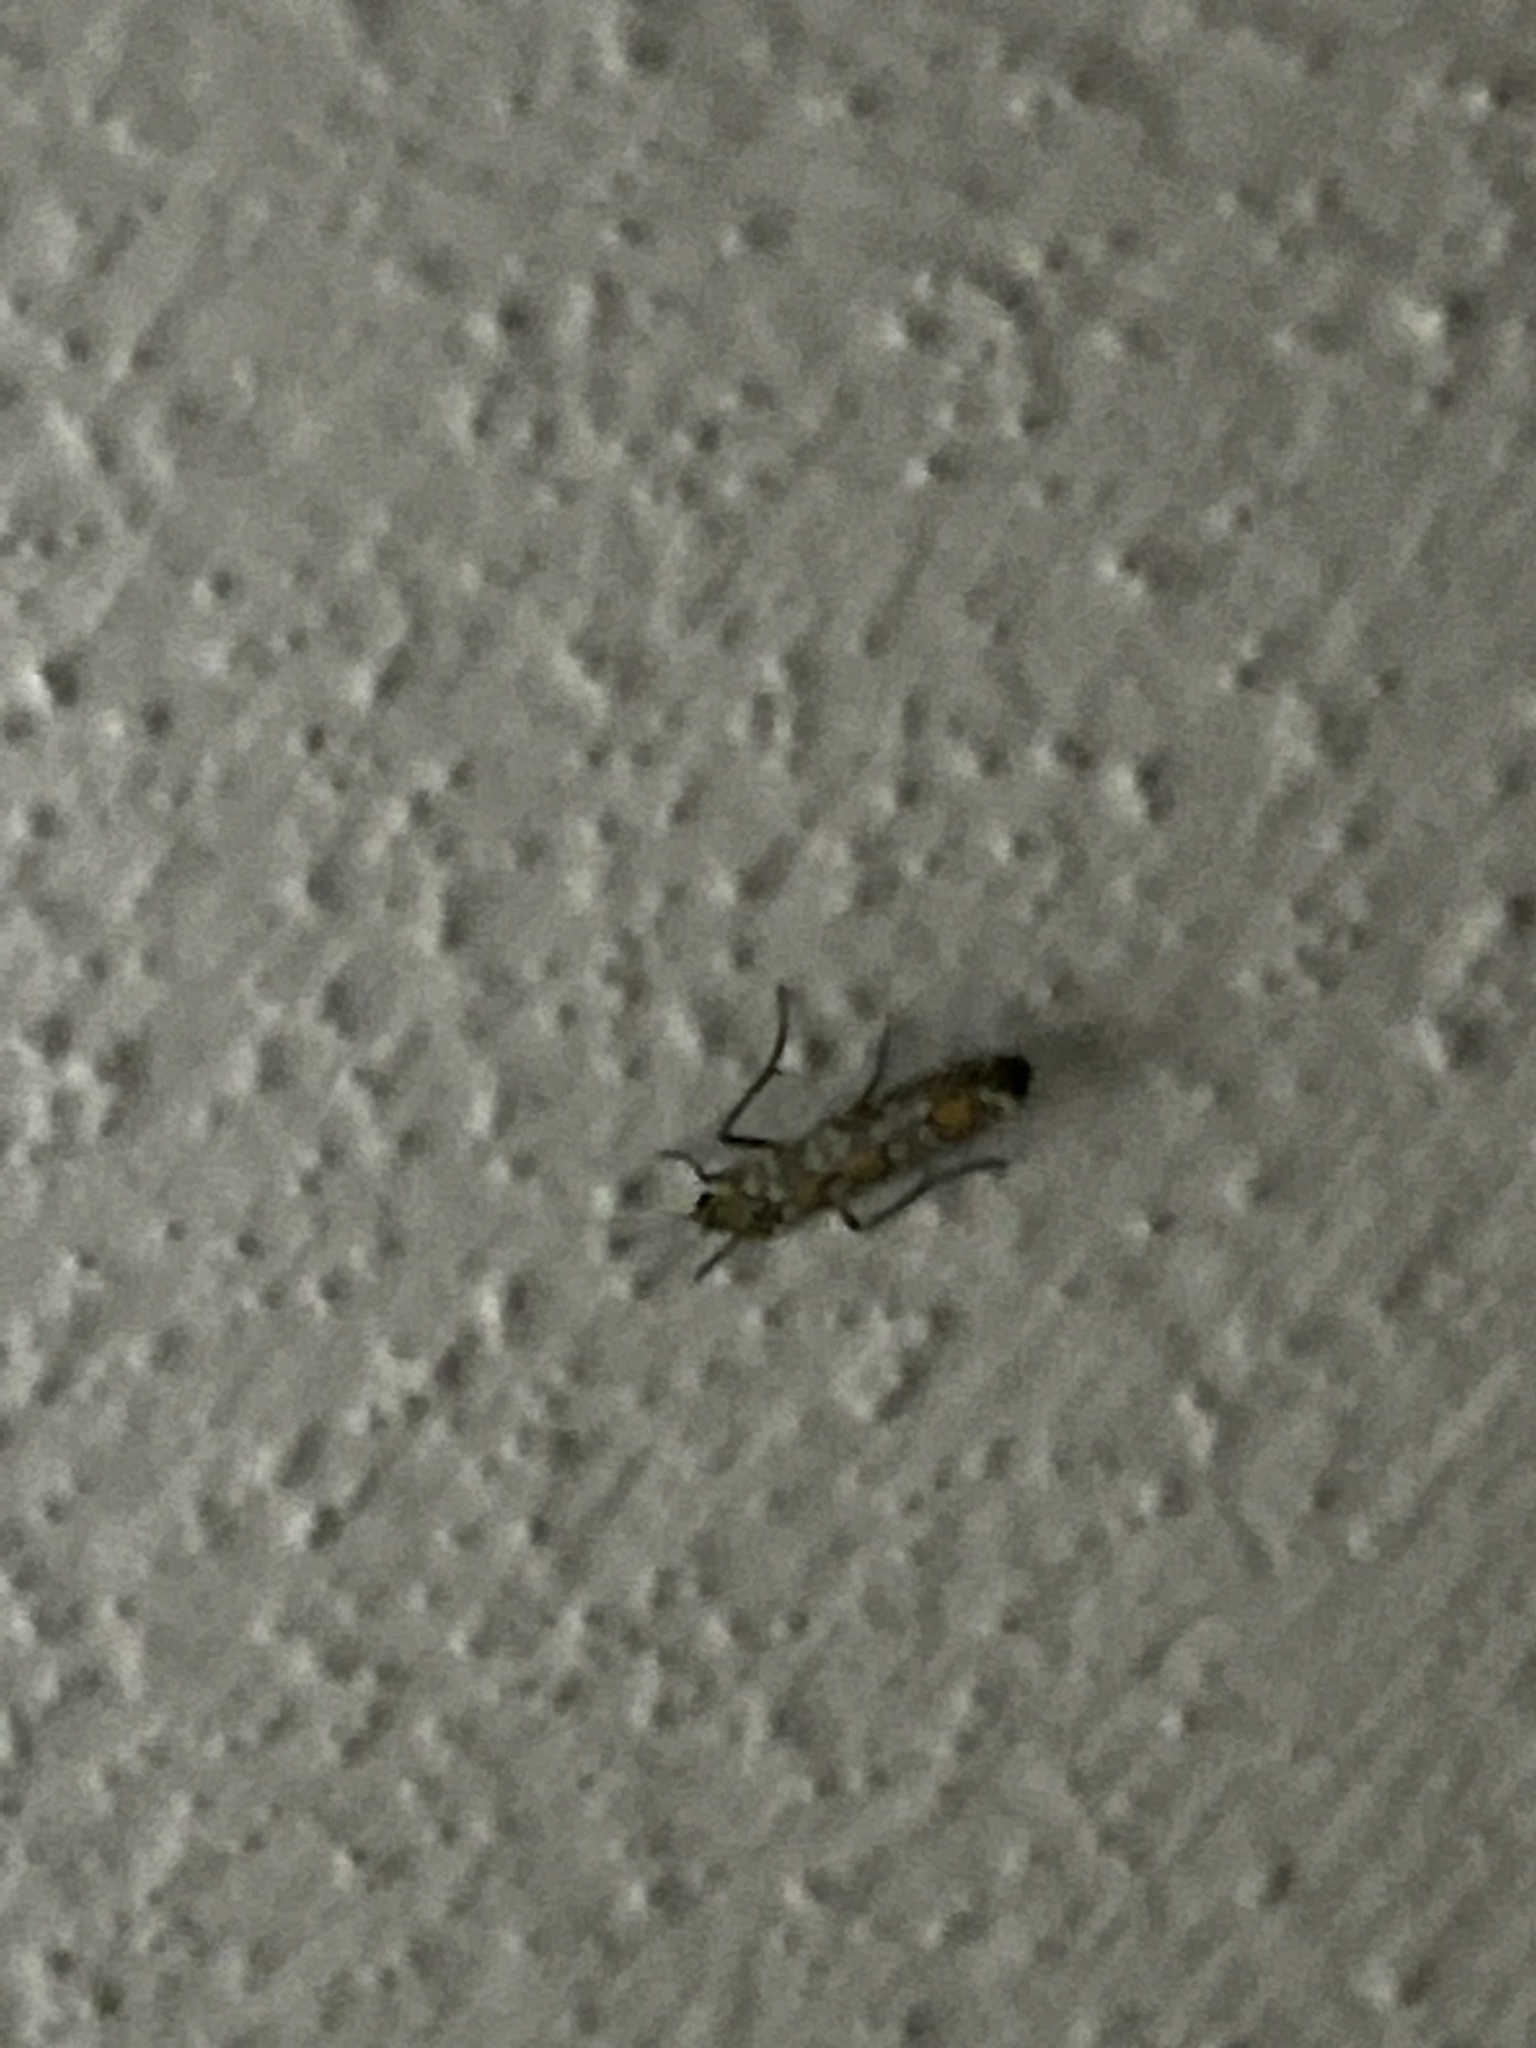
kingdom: Animalia
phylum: Arthropoda
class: Insecta
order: Lepidoptera
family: Attevidae
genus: Atteva
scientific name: Atteva punctella
